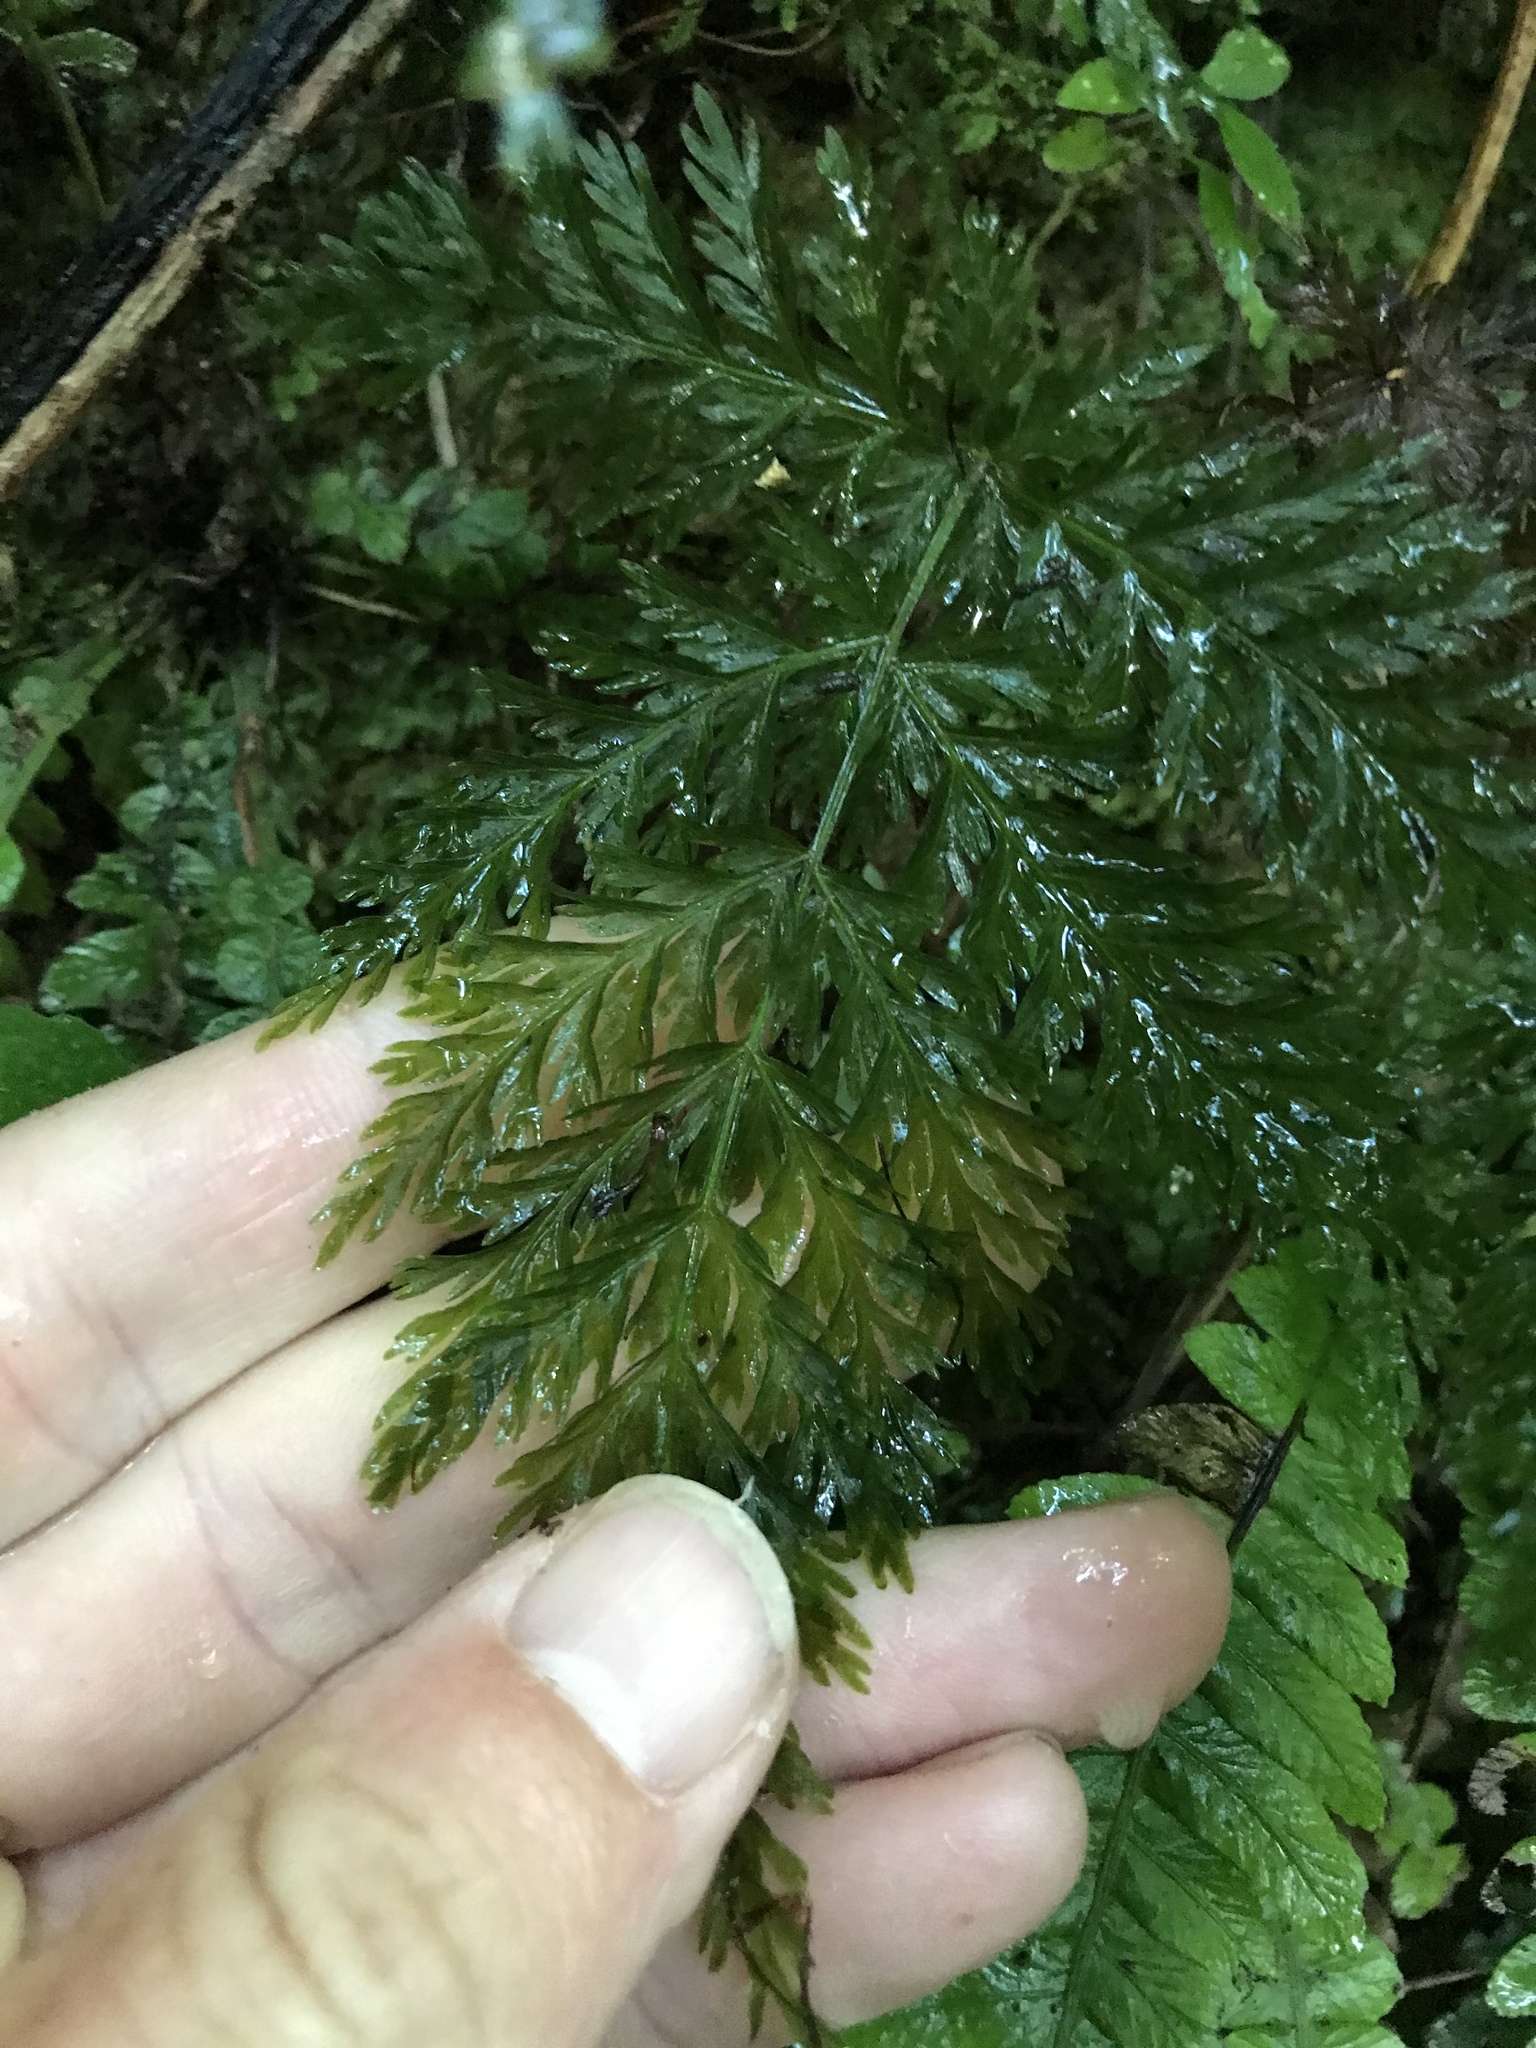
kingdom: Plantae
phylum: Tracheophyta
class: Polypodiopsida
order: Osmundales
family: Osmundaceae
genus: Leptopteris
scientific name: Leptopteris hymenophylloides
